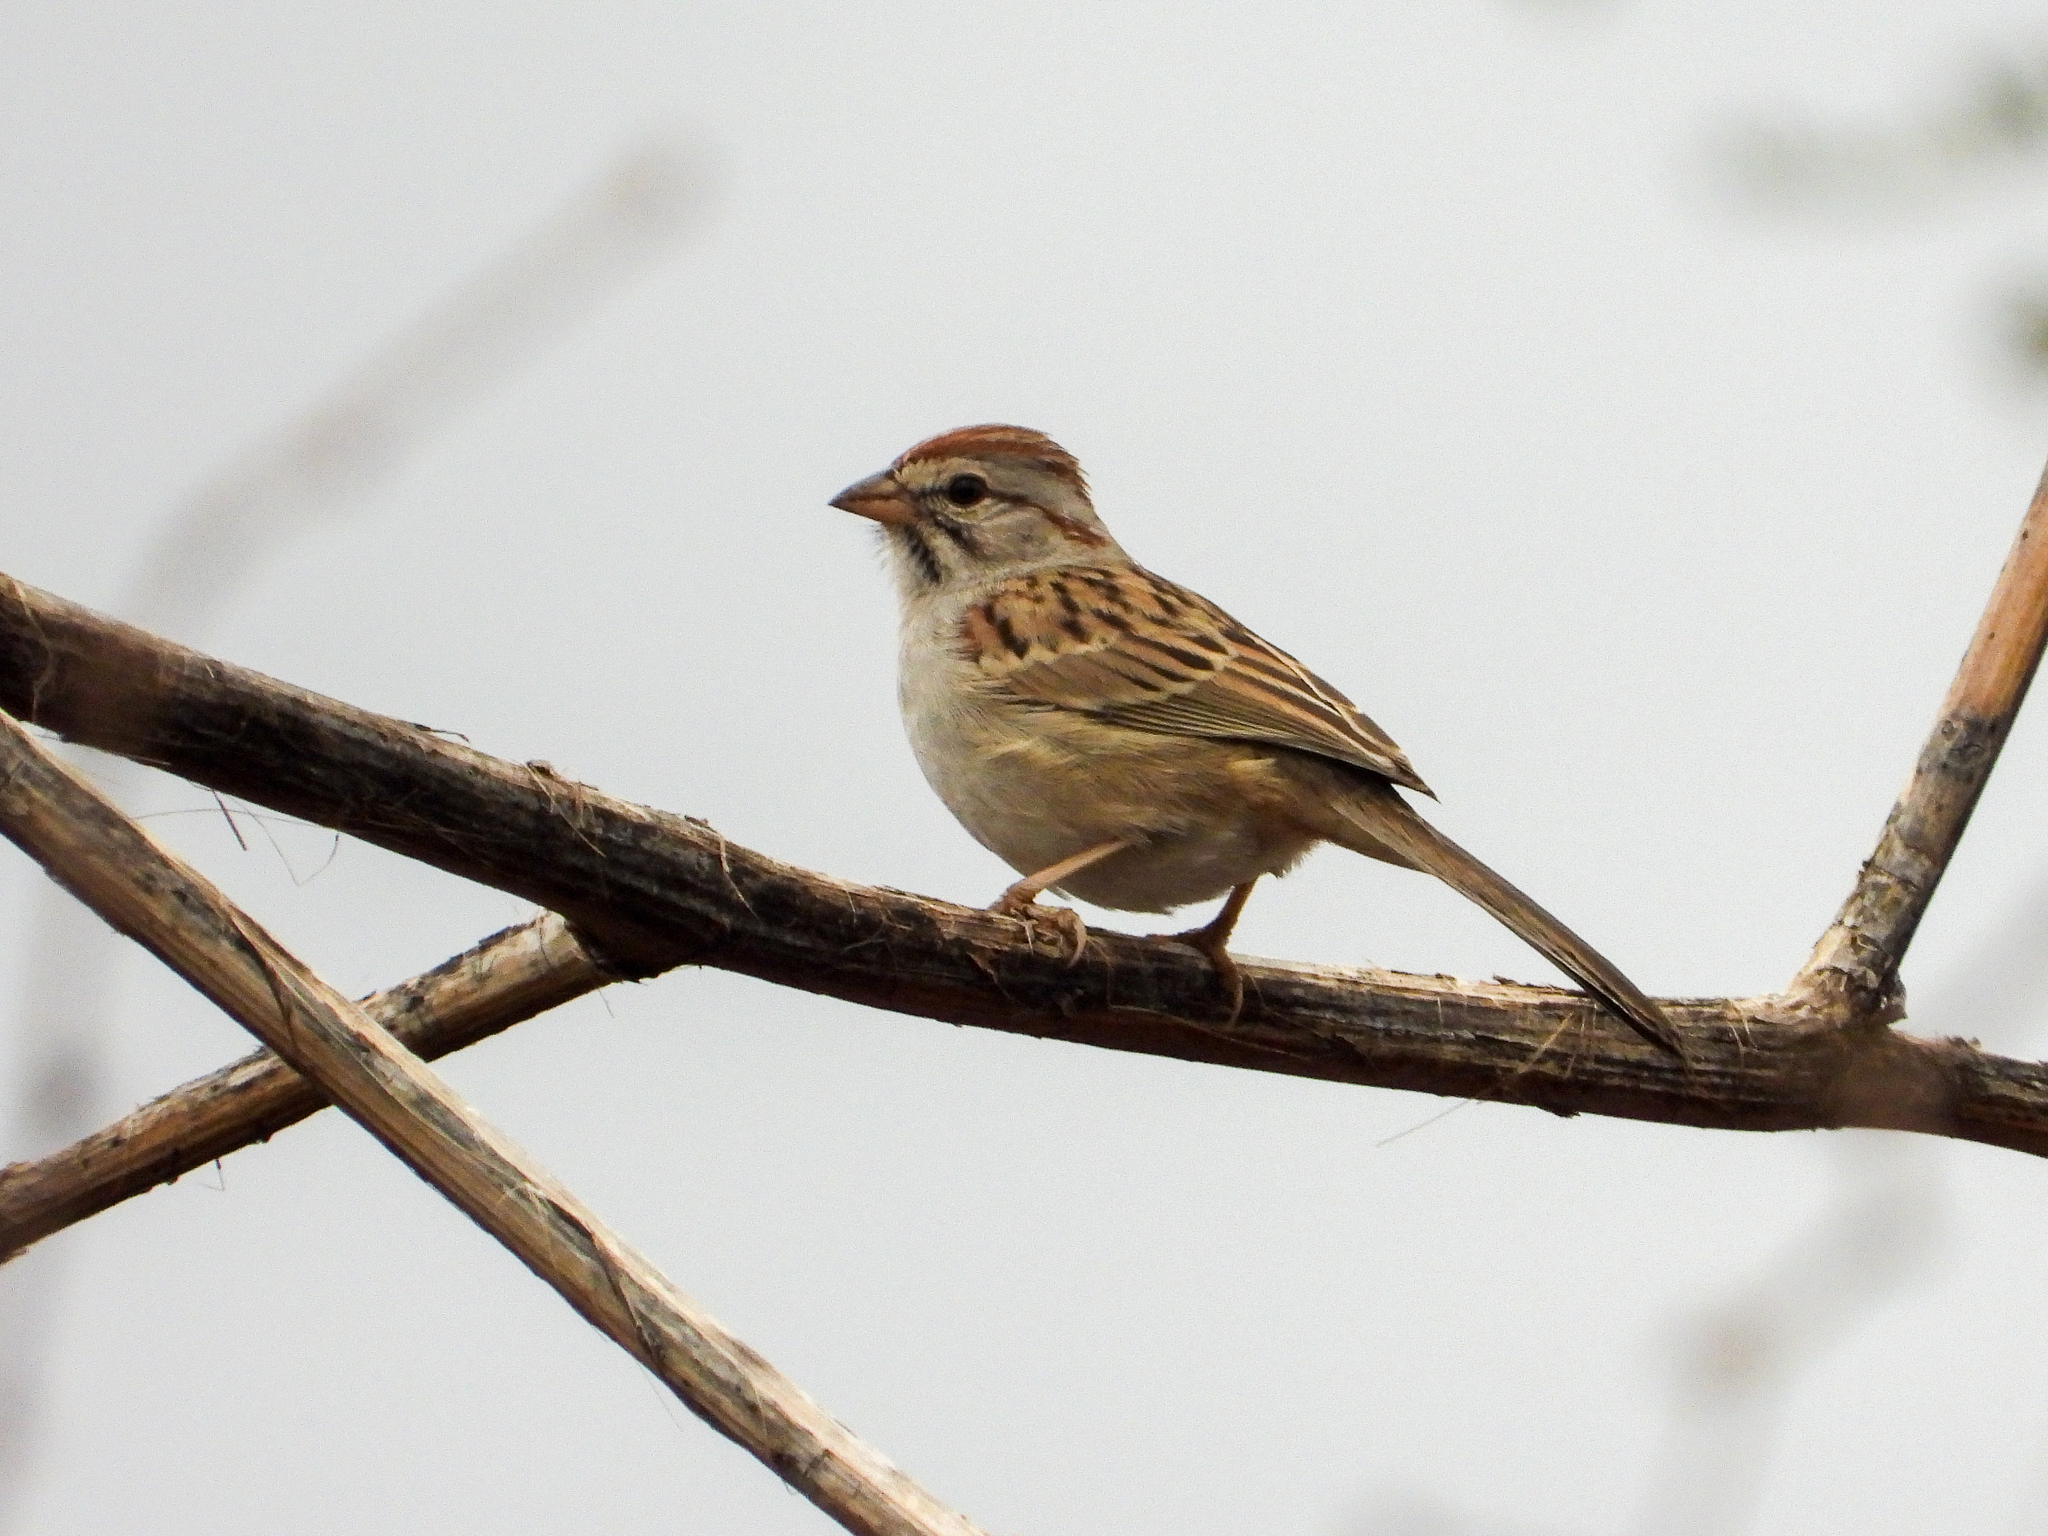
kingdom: Animalia
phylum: Chordata
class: Aves
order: Passeriformes
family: Passerellidae
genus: Peucaea
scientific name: Peucaea carpalis
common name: Rufous-winged sparrow
